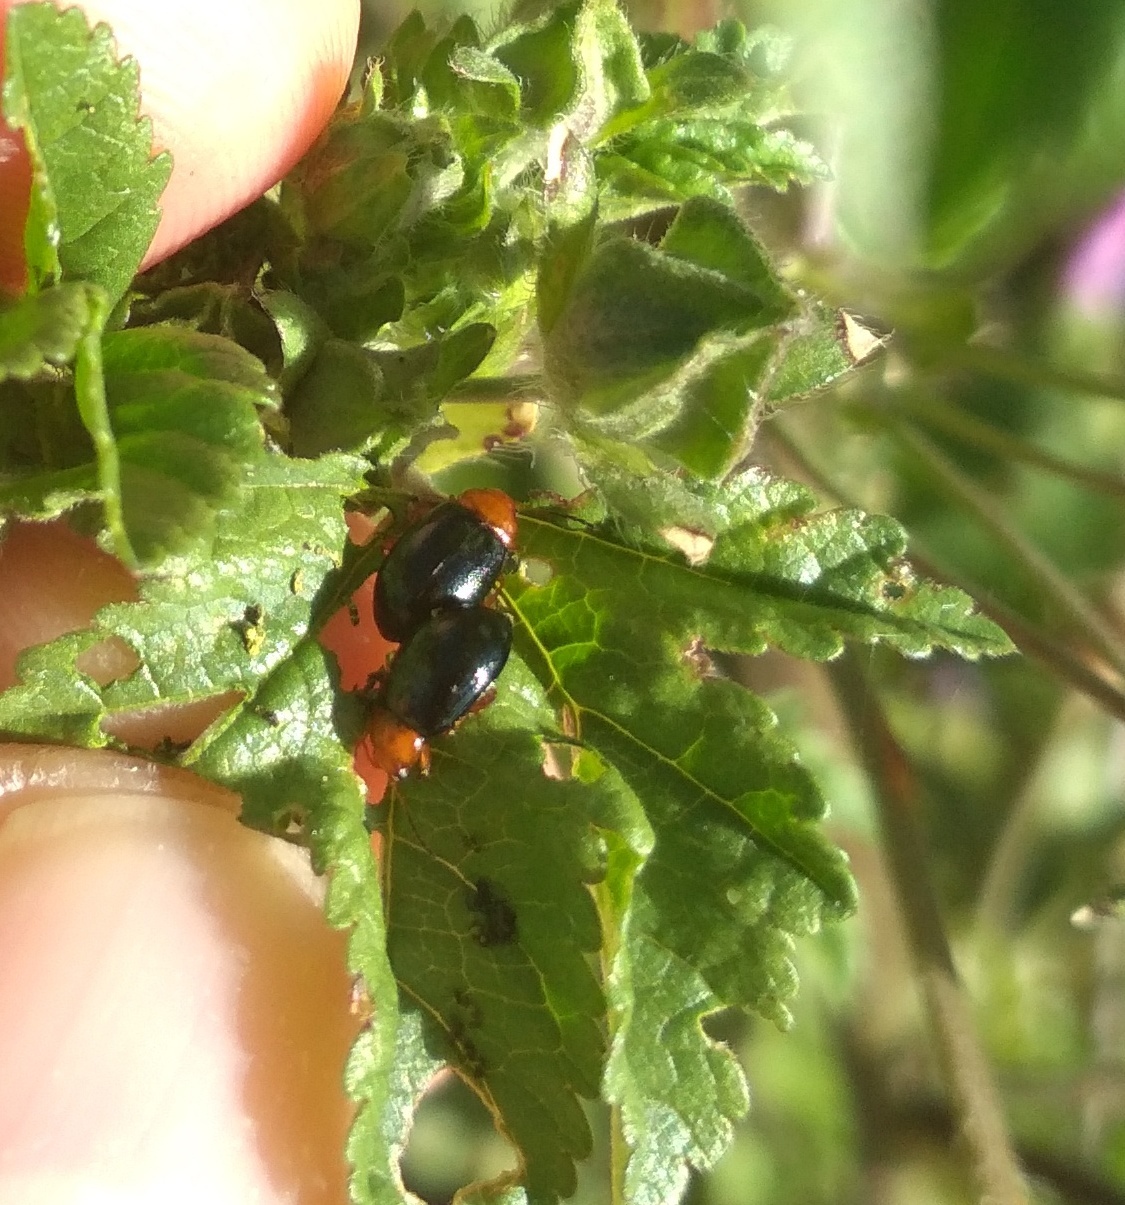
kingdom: Animalia
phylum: Arthropoda
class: Insecta
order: Coleoptera
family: Chrysomelidae
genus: Podagrica
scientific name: Podagrica fuscicornis
